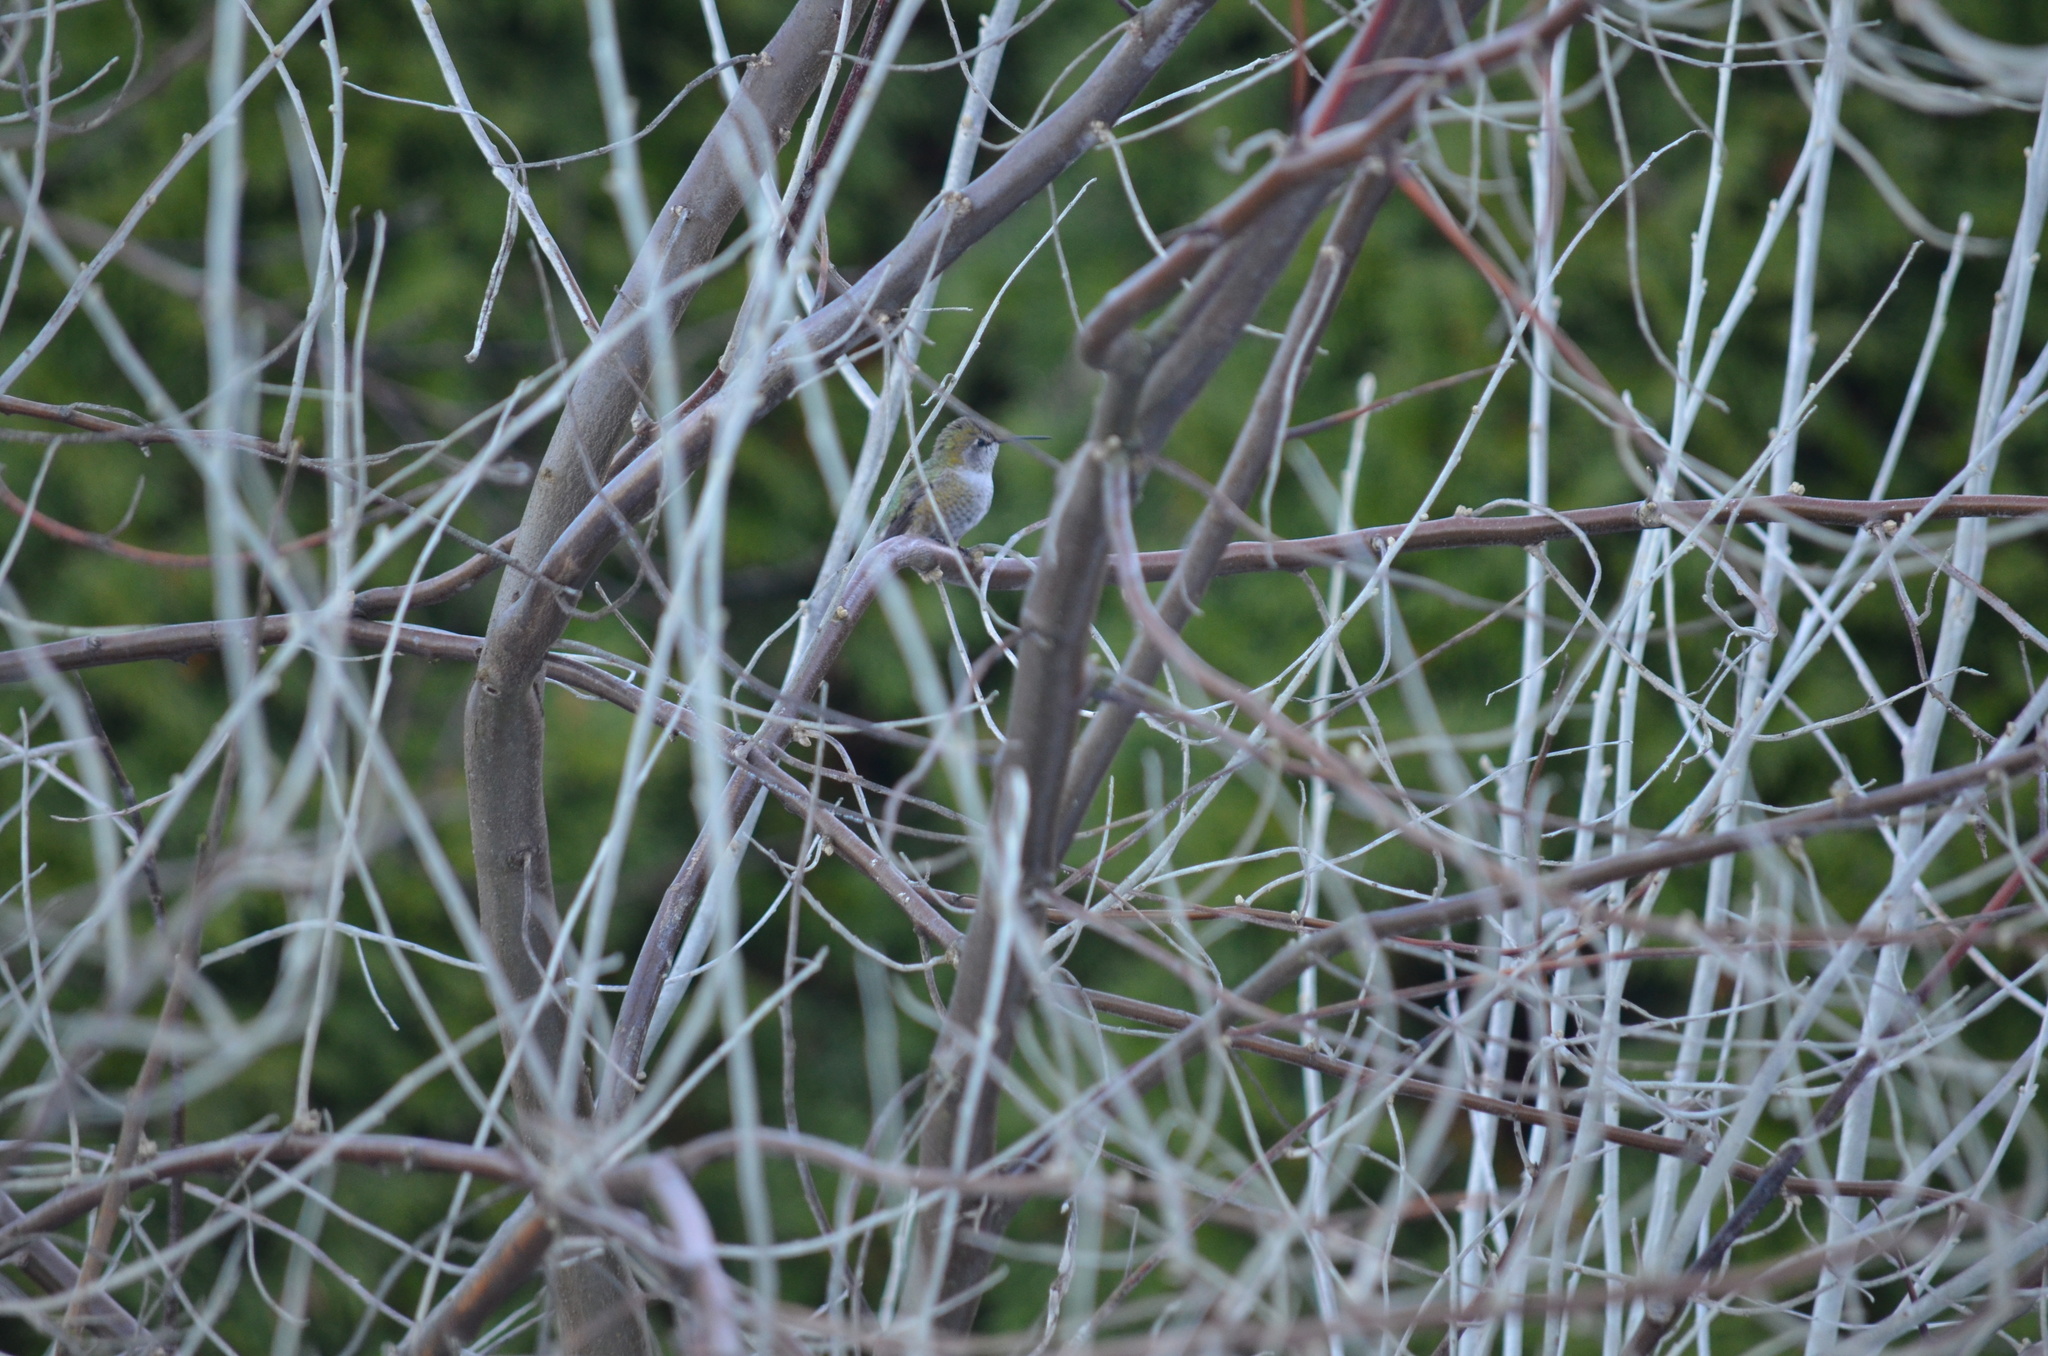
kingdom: Animalia
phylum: Chordata
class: Aves
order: Apodiformes
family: Trochilidae
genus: Calypte
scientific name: Calypte anna
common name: Anna's hummingbird
